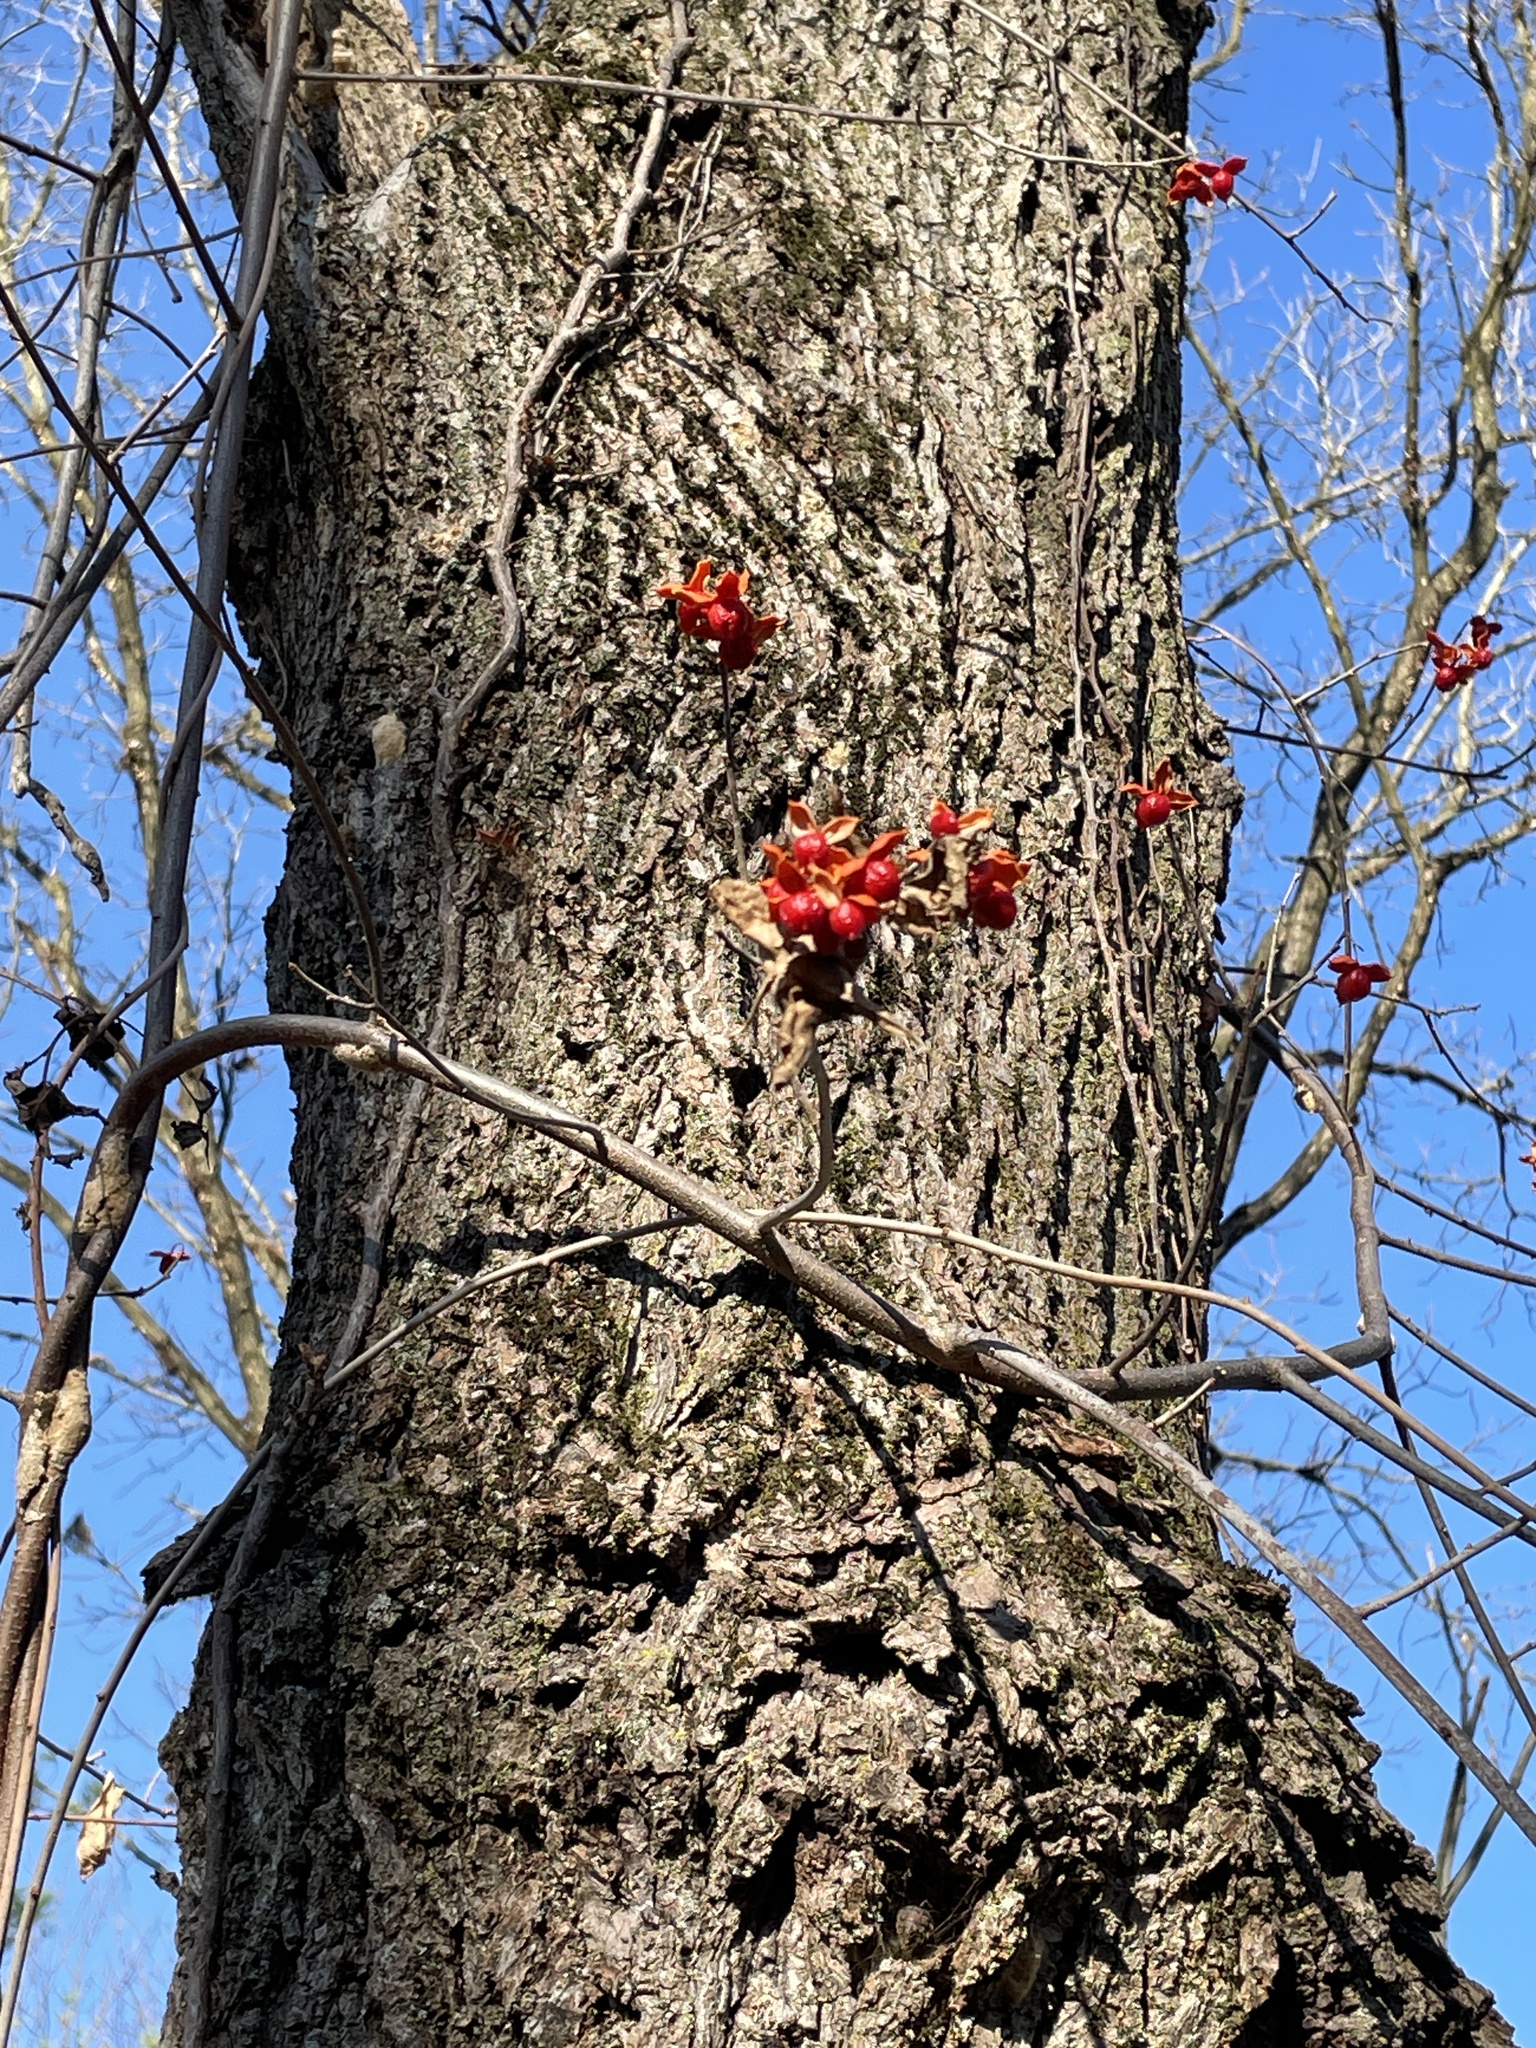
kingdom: Plantae
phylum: Tracheophyta
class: Magnoliopsida
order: Celastrales
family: Celastraceae
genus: Celastrus
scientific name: Celastrus scandens
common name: American bittersweet
